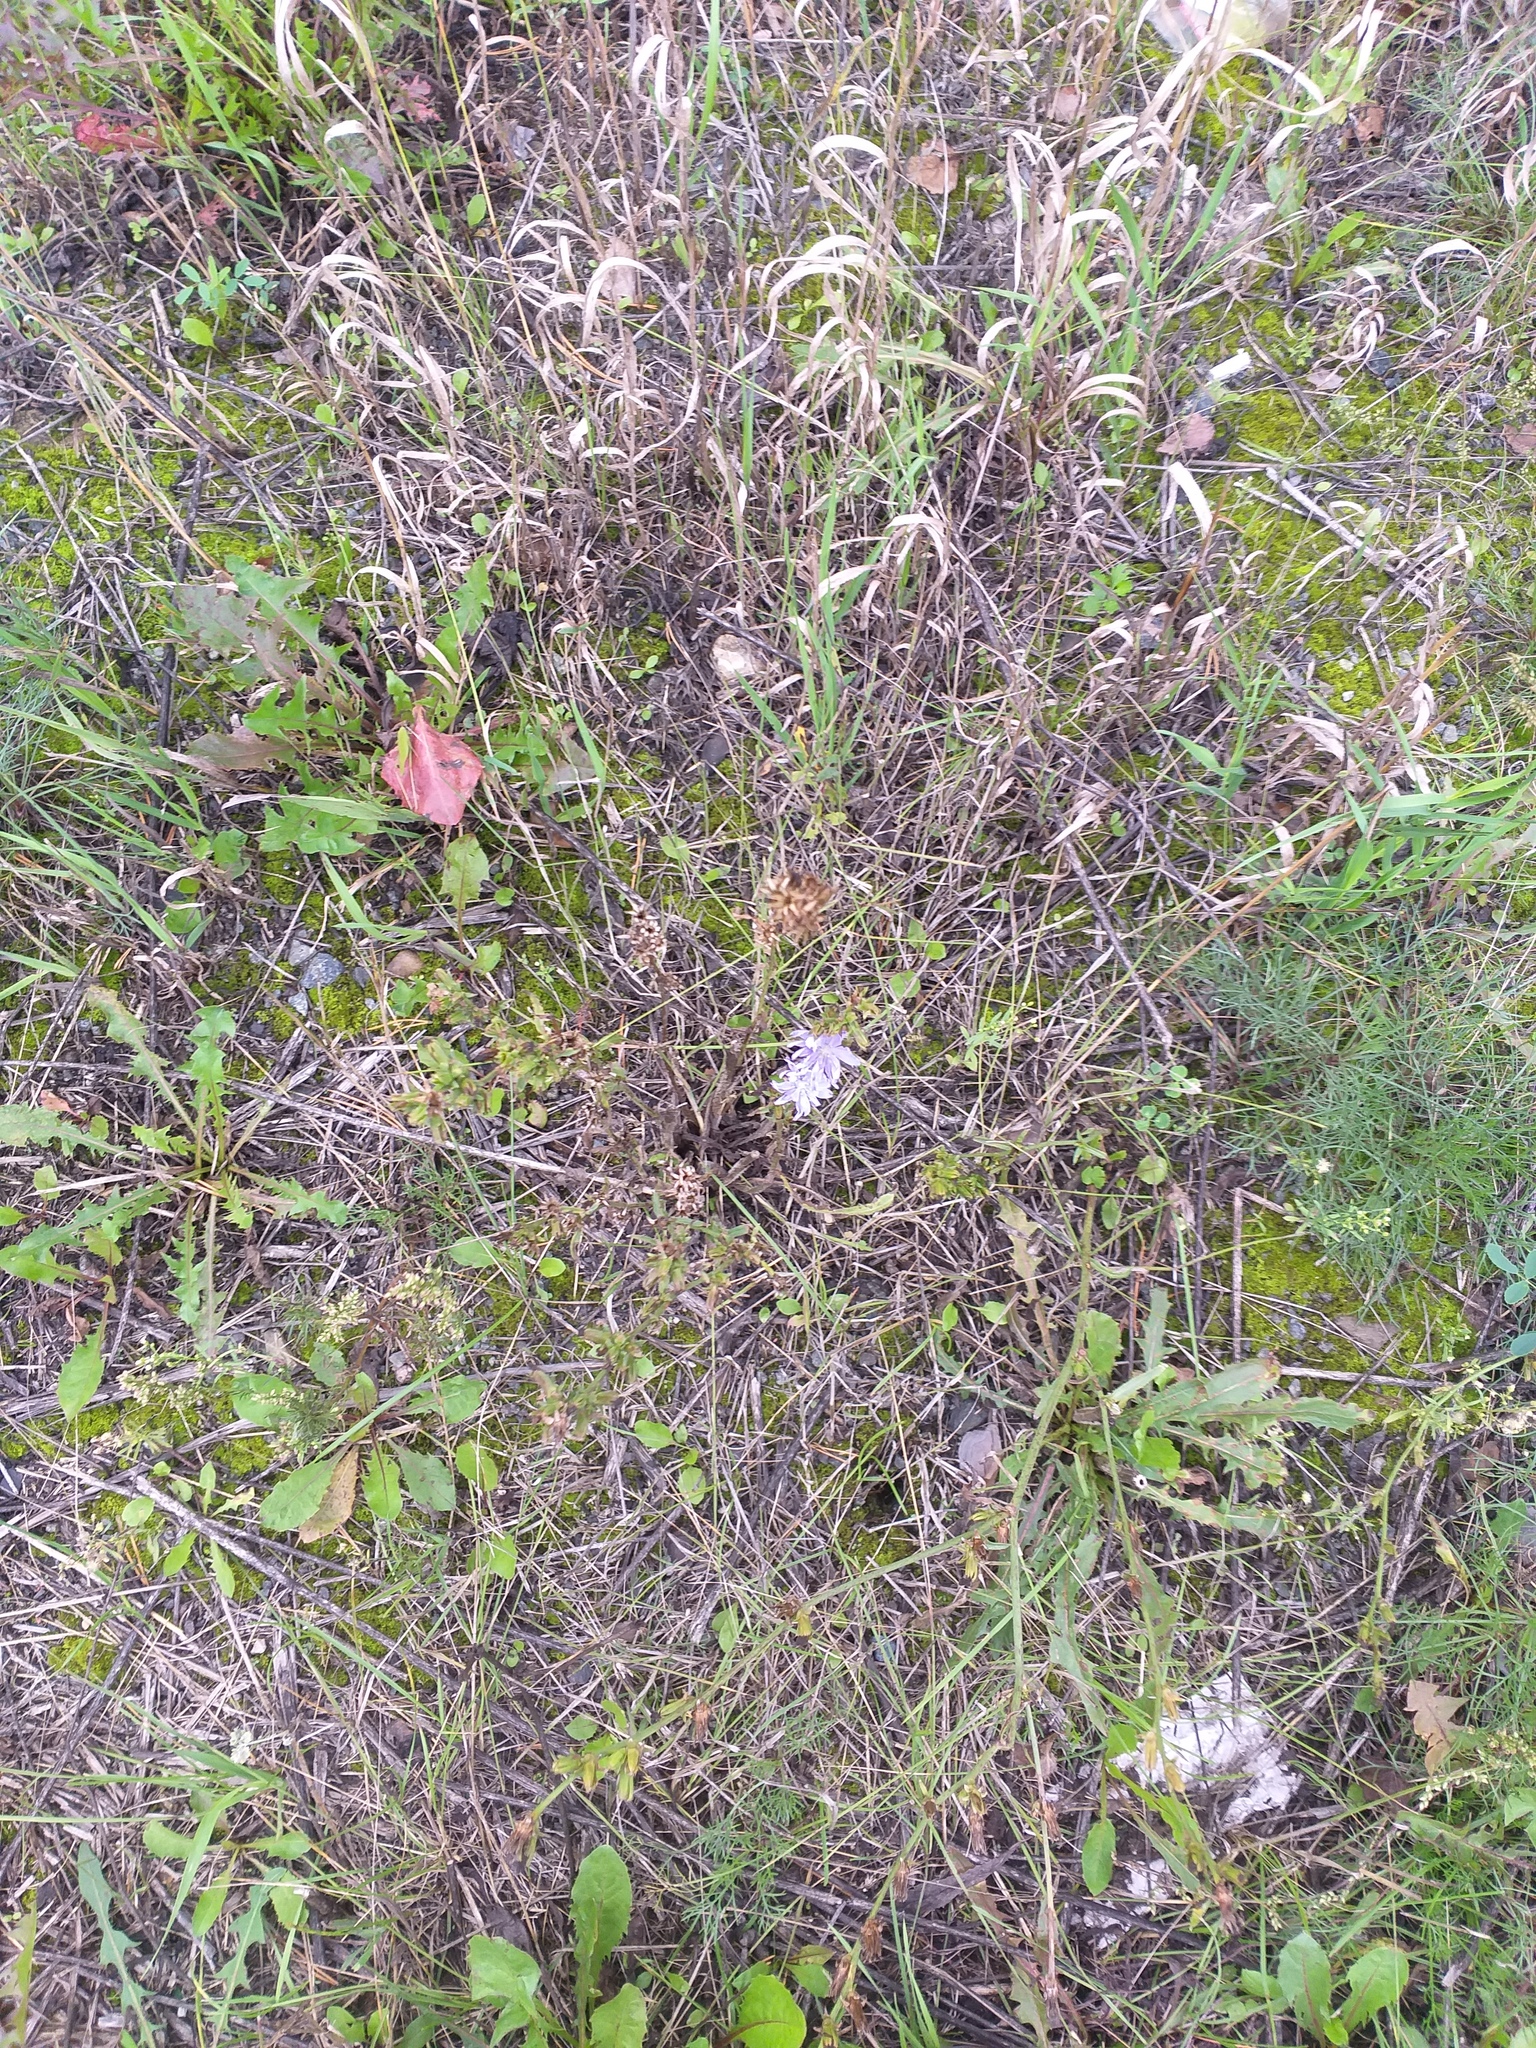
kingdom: Plantae
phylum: Tracheophyta
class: Magnoliopsida
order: Asterales
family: Asteraceae
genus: Cichorium
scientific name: Cichorium intybus
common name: Chicory
